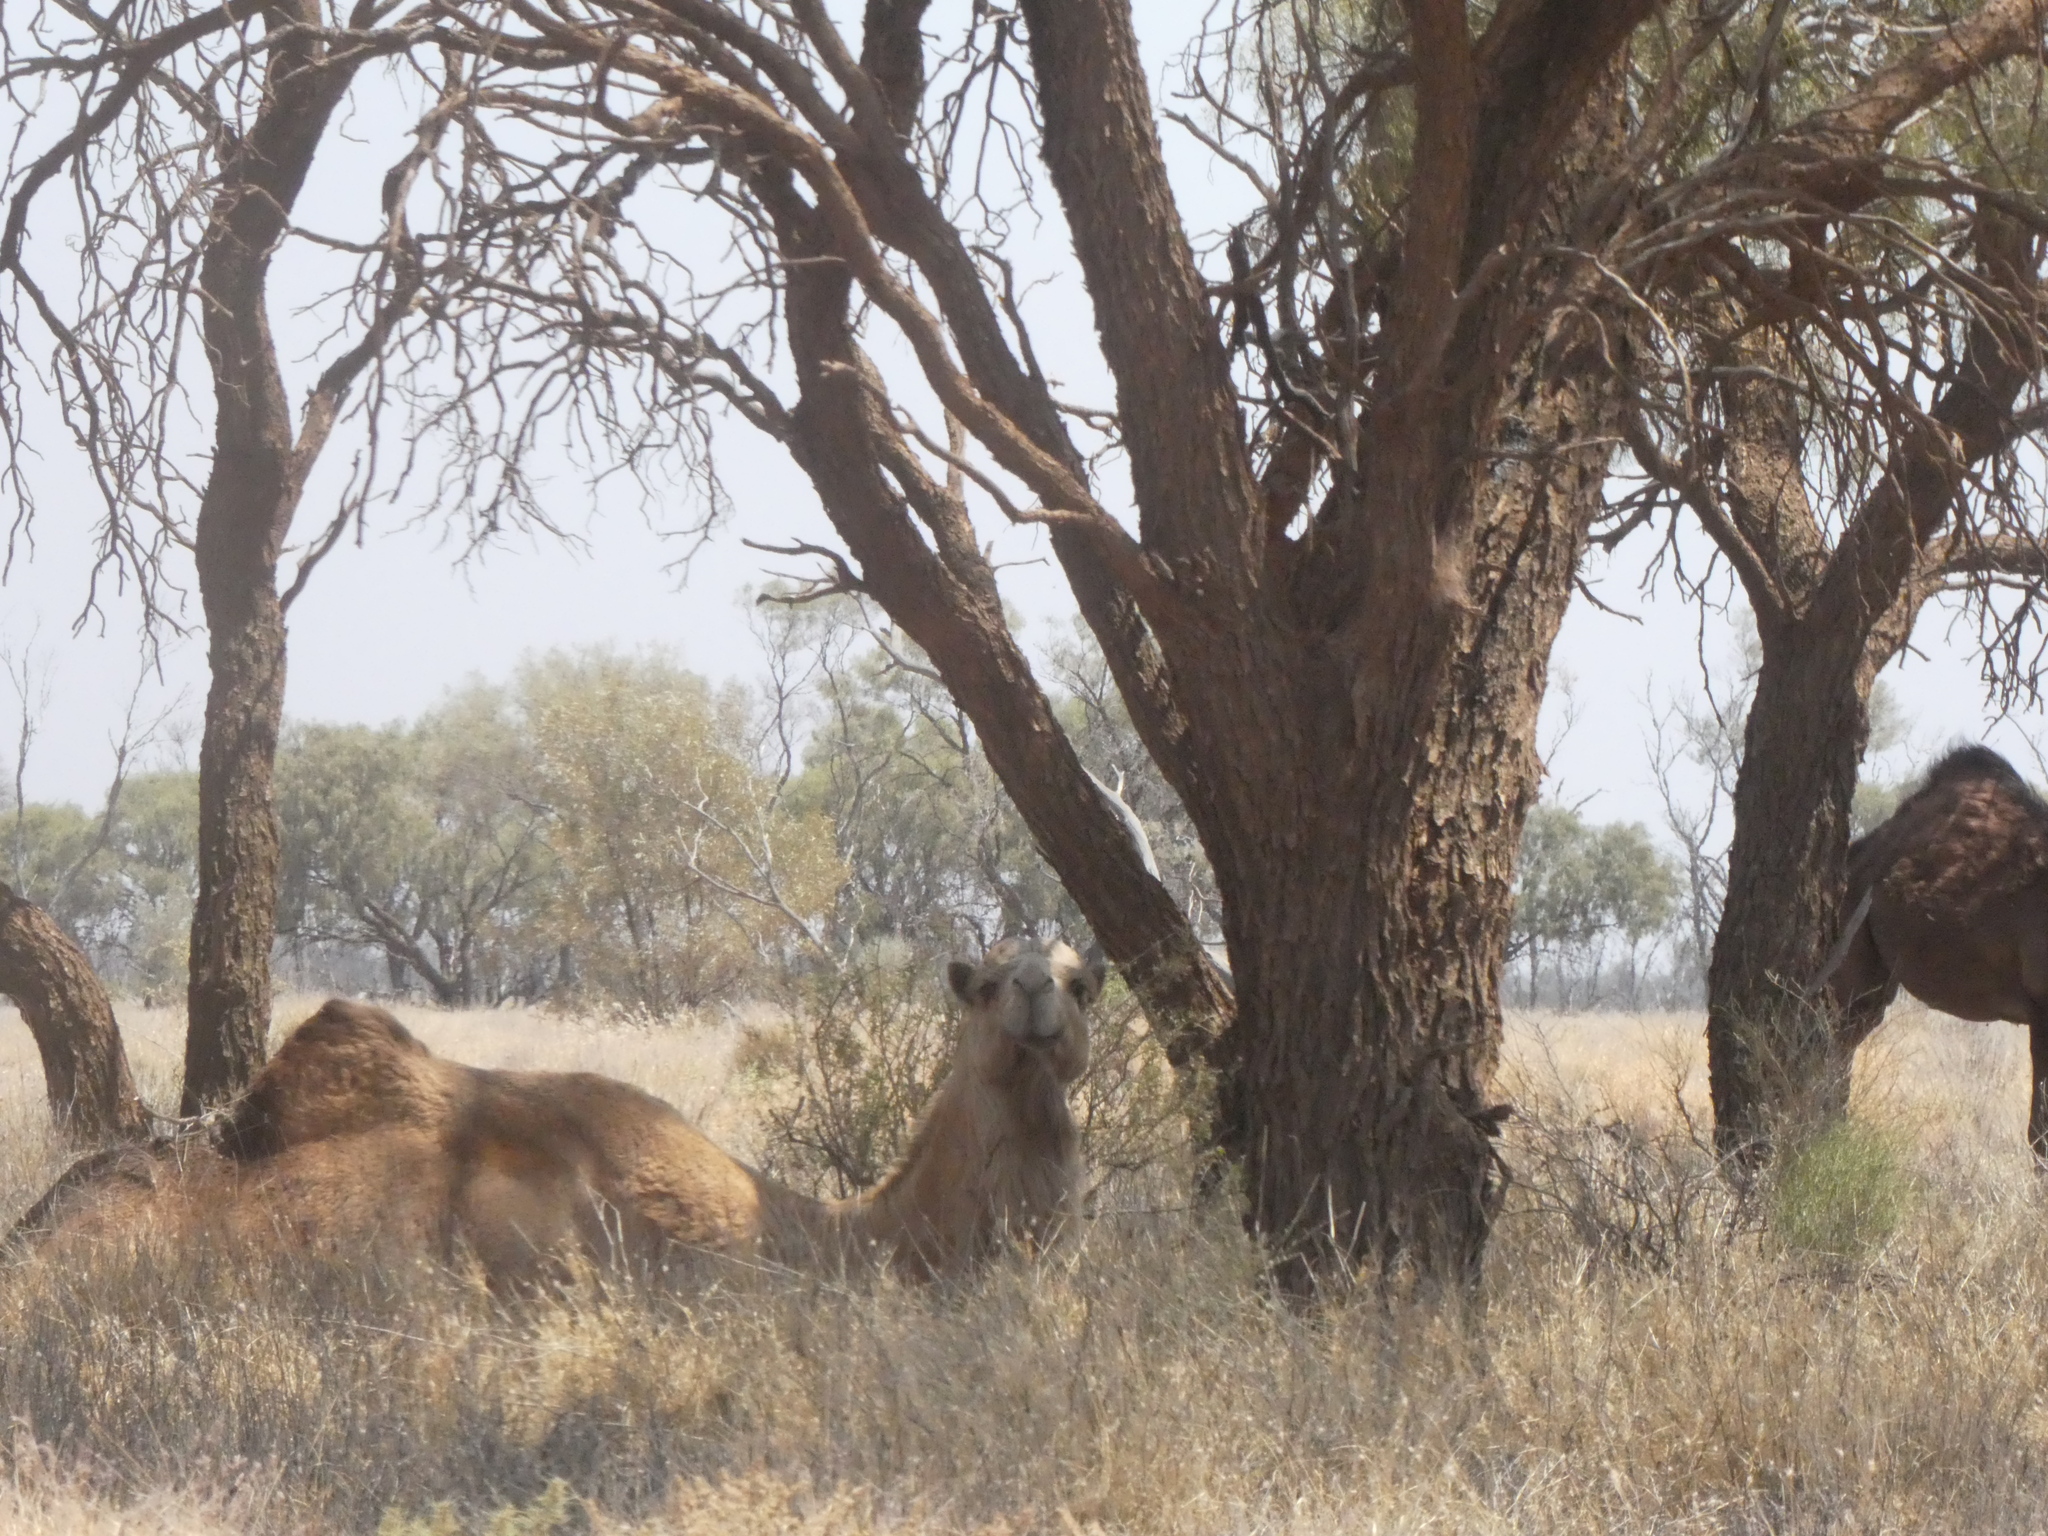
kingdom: Animalia
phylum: Chordata
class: Mammalia
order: Artiodactyla
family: Camelidae
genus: Camelus
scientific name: Camelus dromedarius
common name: One-humped camel
